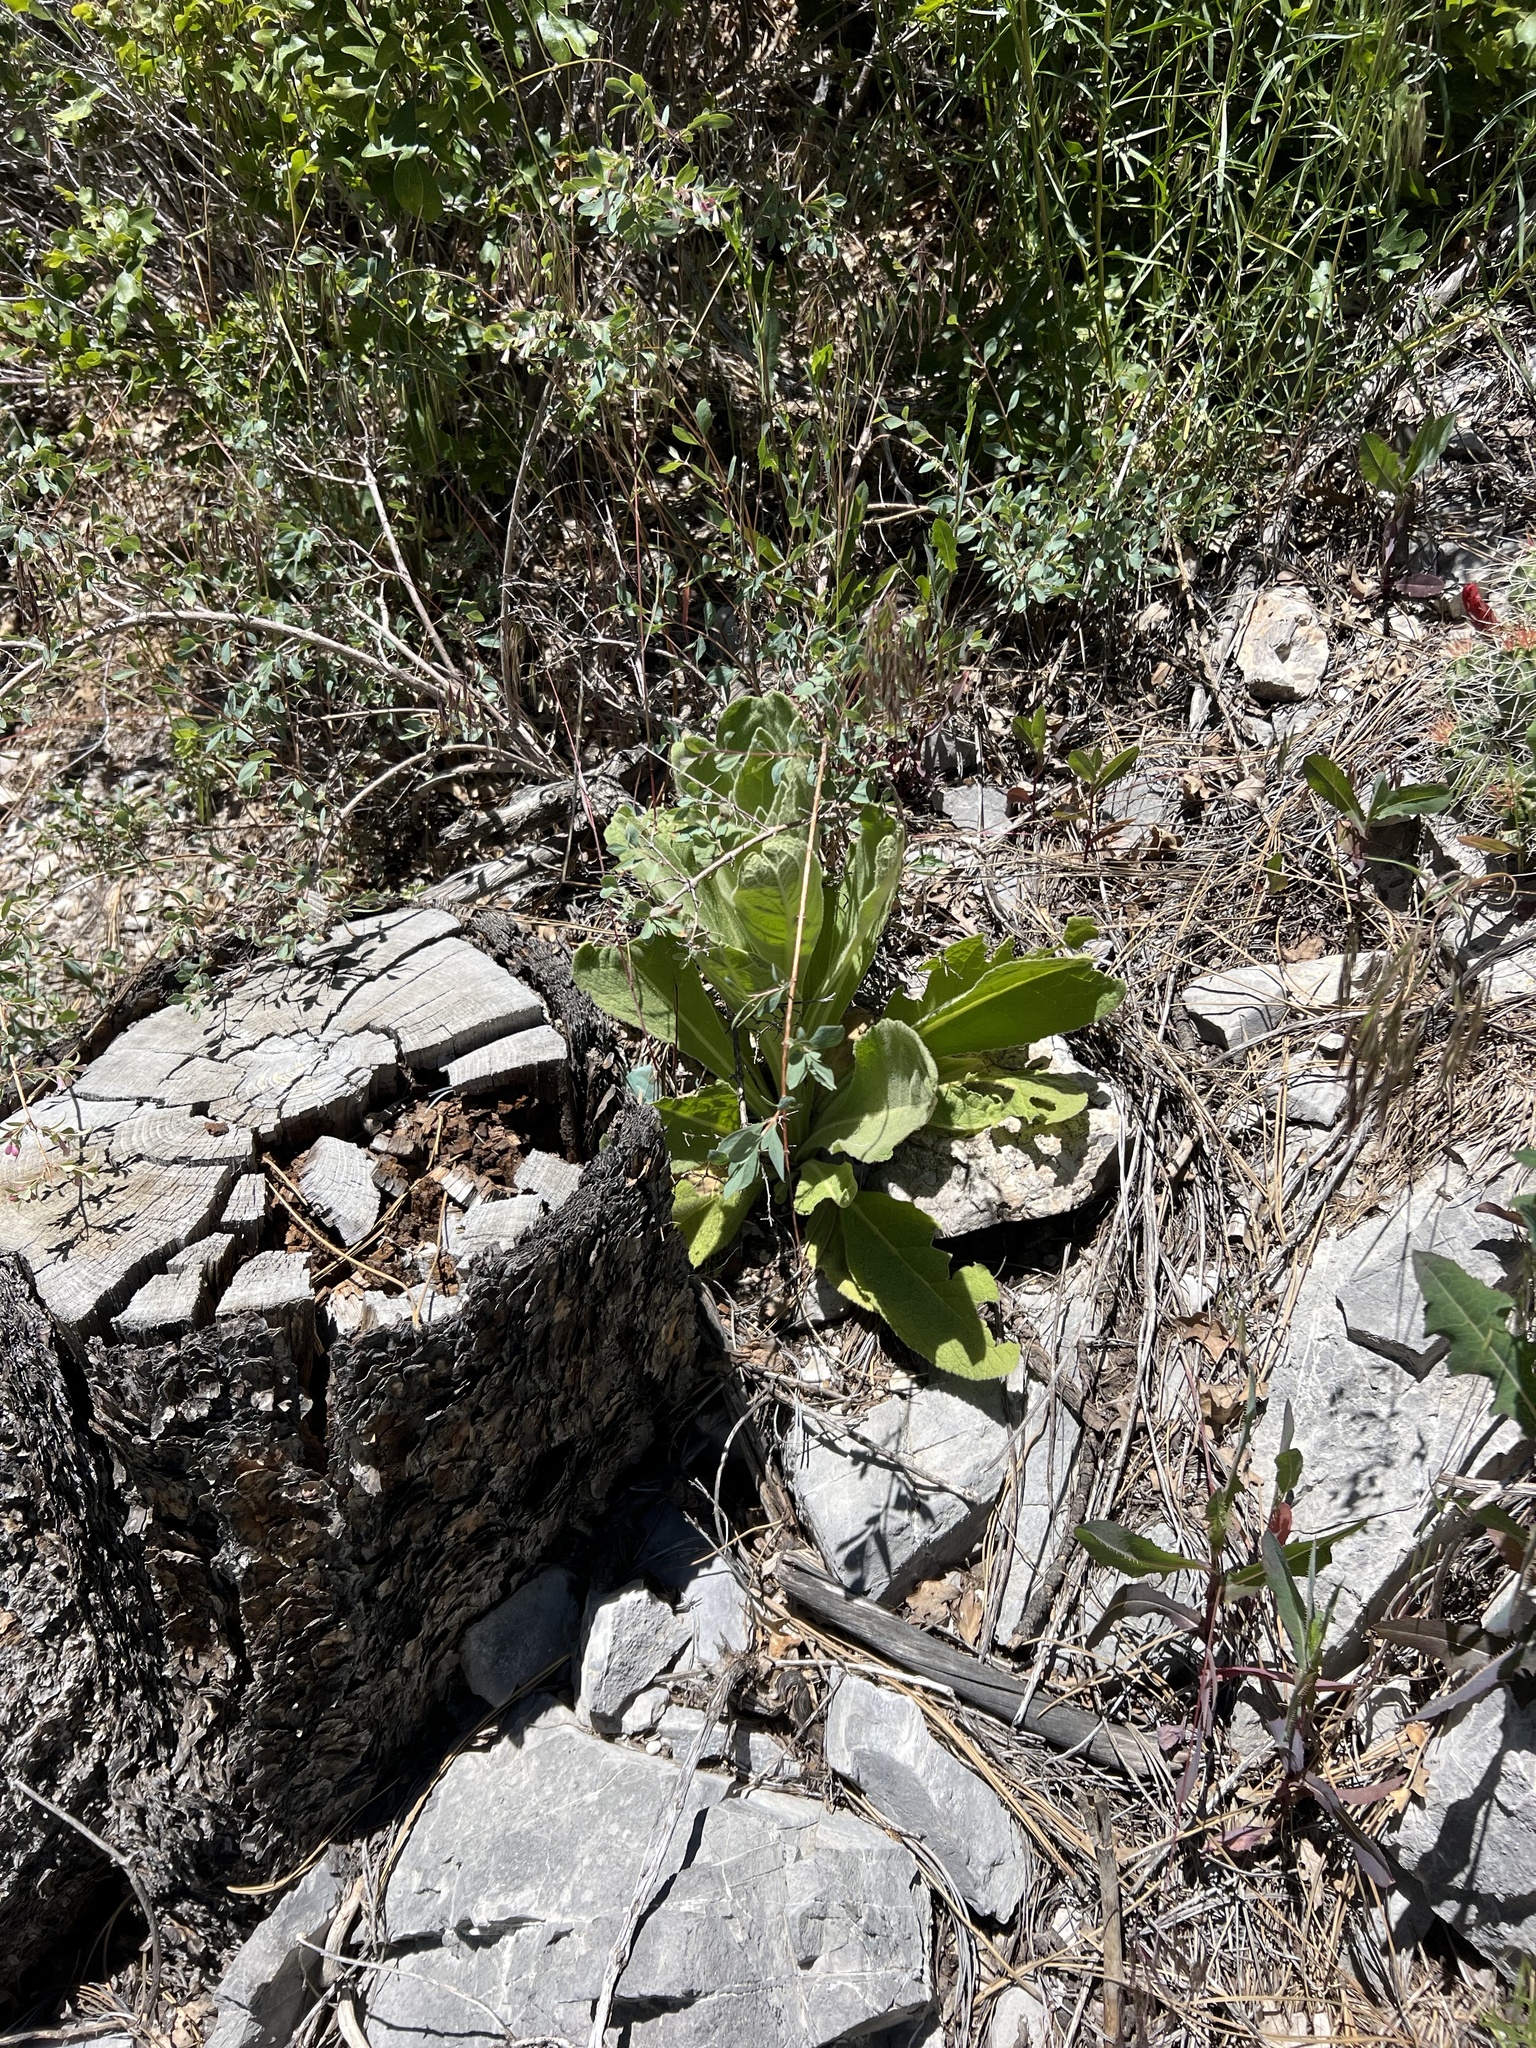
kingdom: Plantae
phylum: Tracheophyta
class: Magnoliopsida
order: Lamiales
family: Scrophulariaceae
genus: Verbascum
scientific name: Verbascum thapsus
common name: Common mullein
